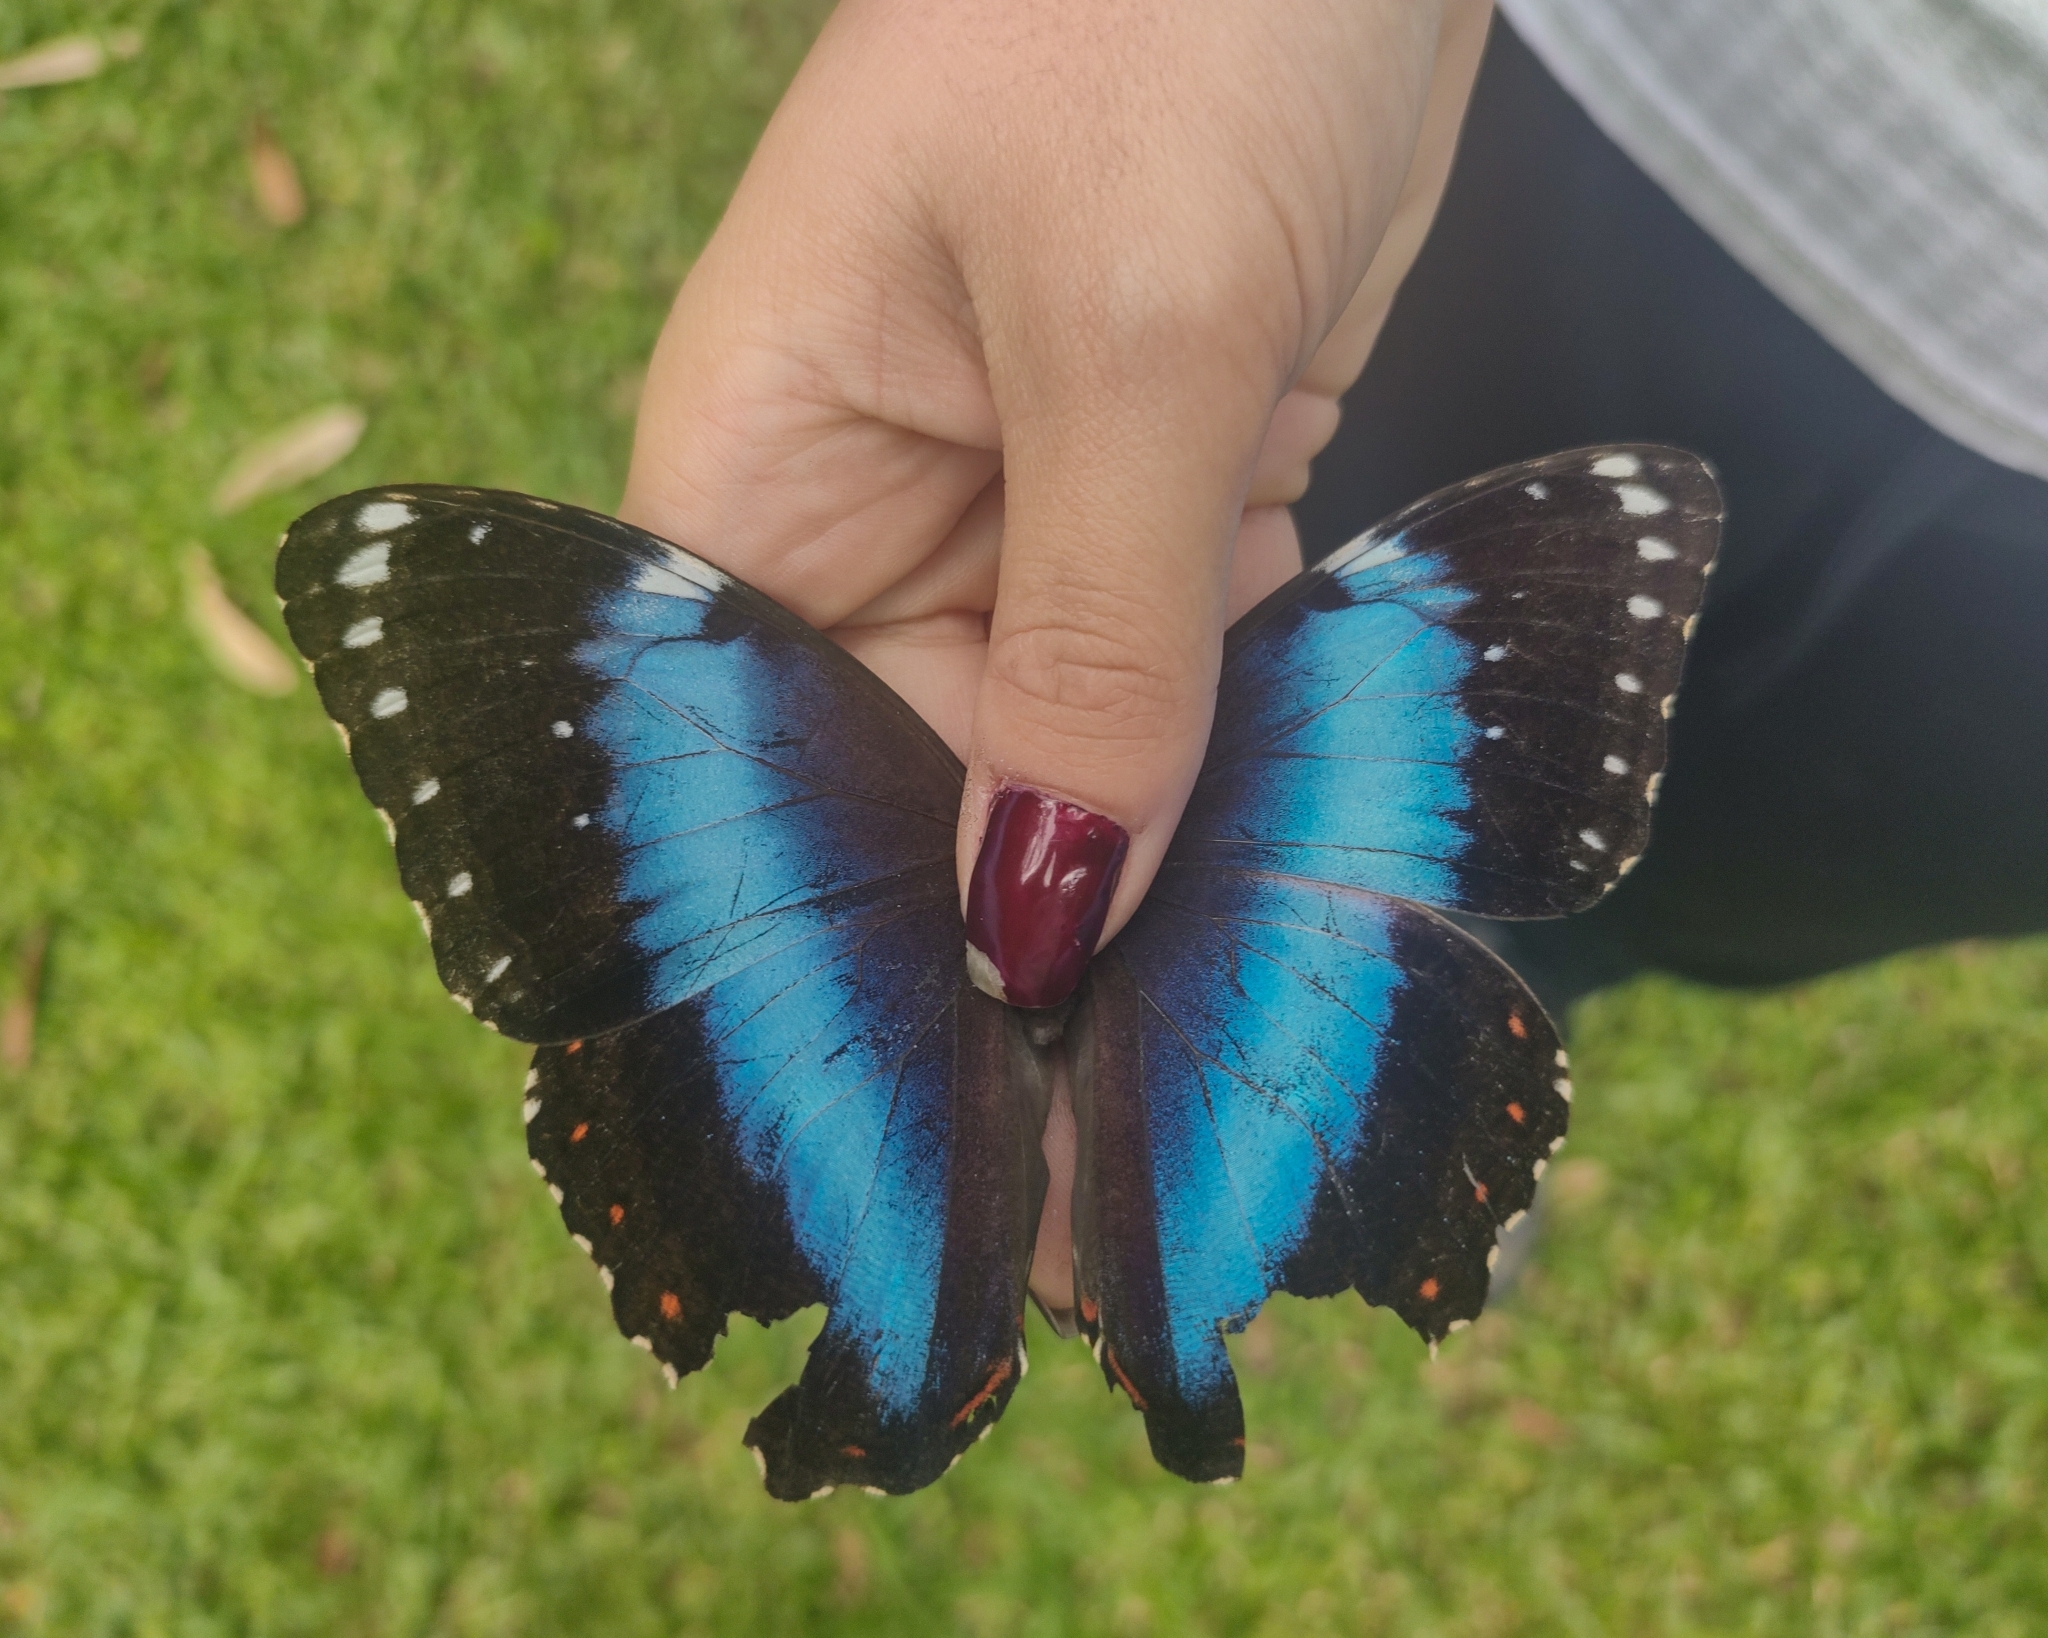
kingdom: Animalia
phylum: Arthropoda
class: Insecta
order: Lepidoptera
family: Nymphalidae
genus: Morpho
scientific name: Morpho helenor
